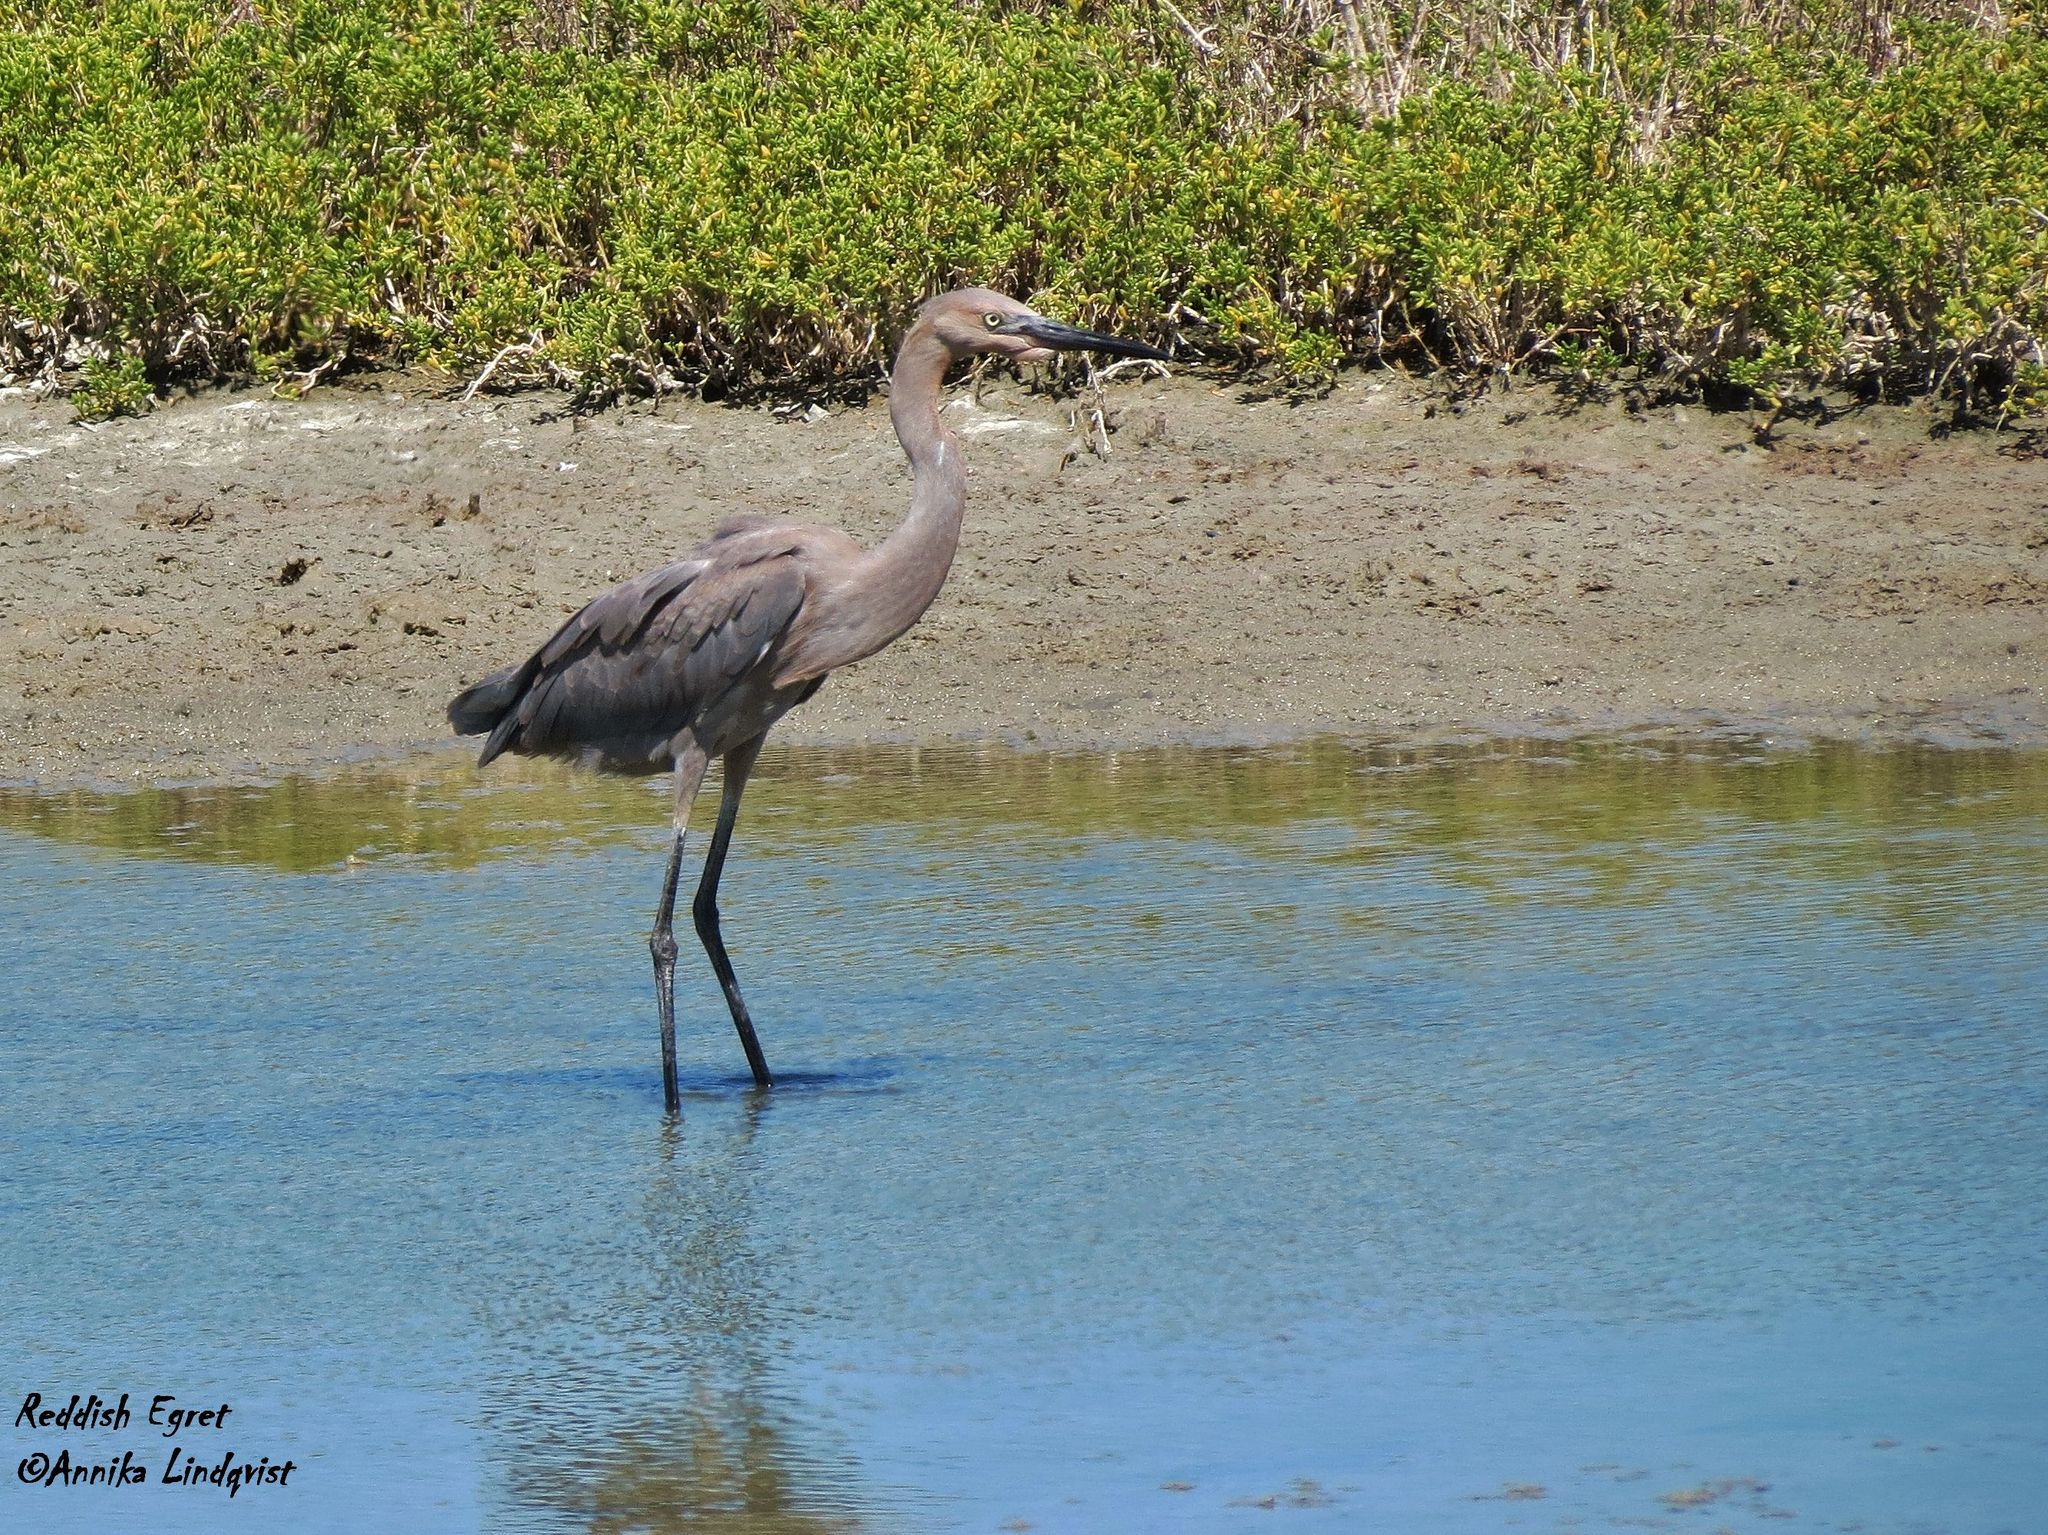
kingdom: Animalia
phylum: Chordata
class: Aves
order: Pelecaniformes
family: Ardeidae
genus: Egretta
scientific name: Egretta rufescens
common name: Reddish egret
